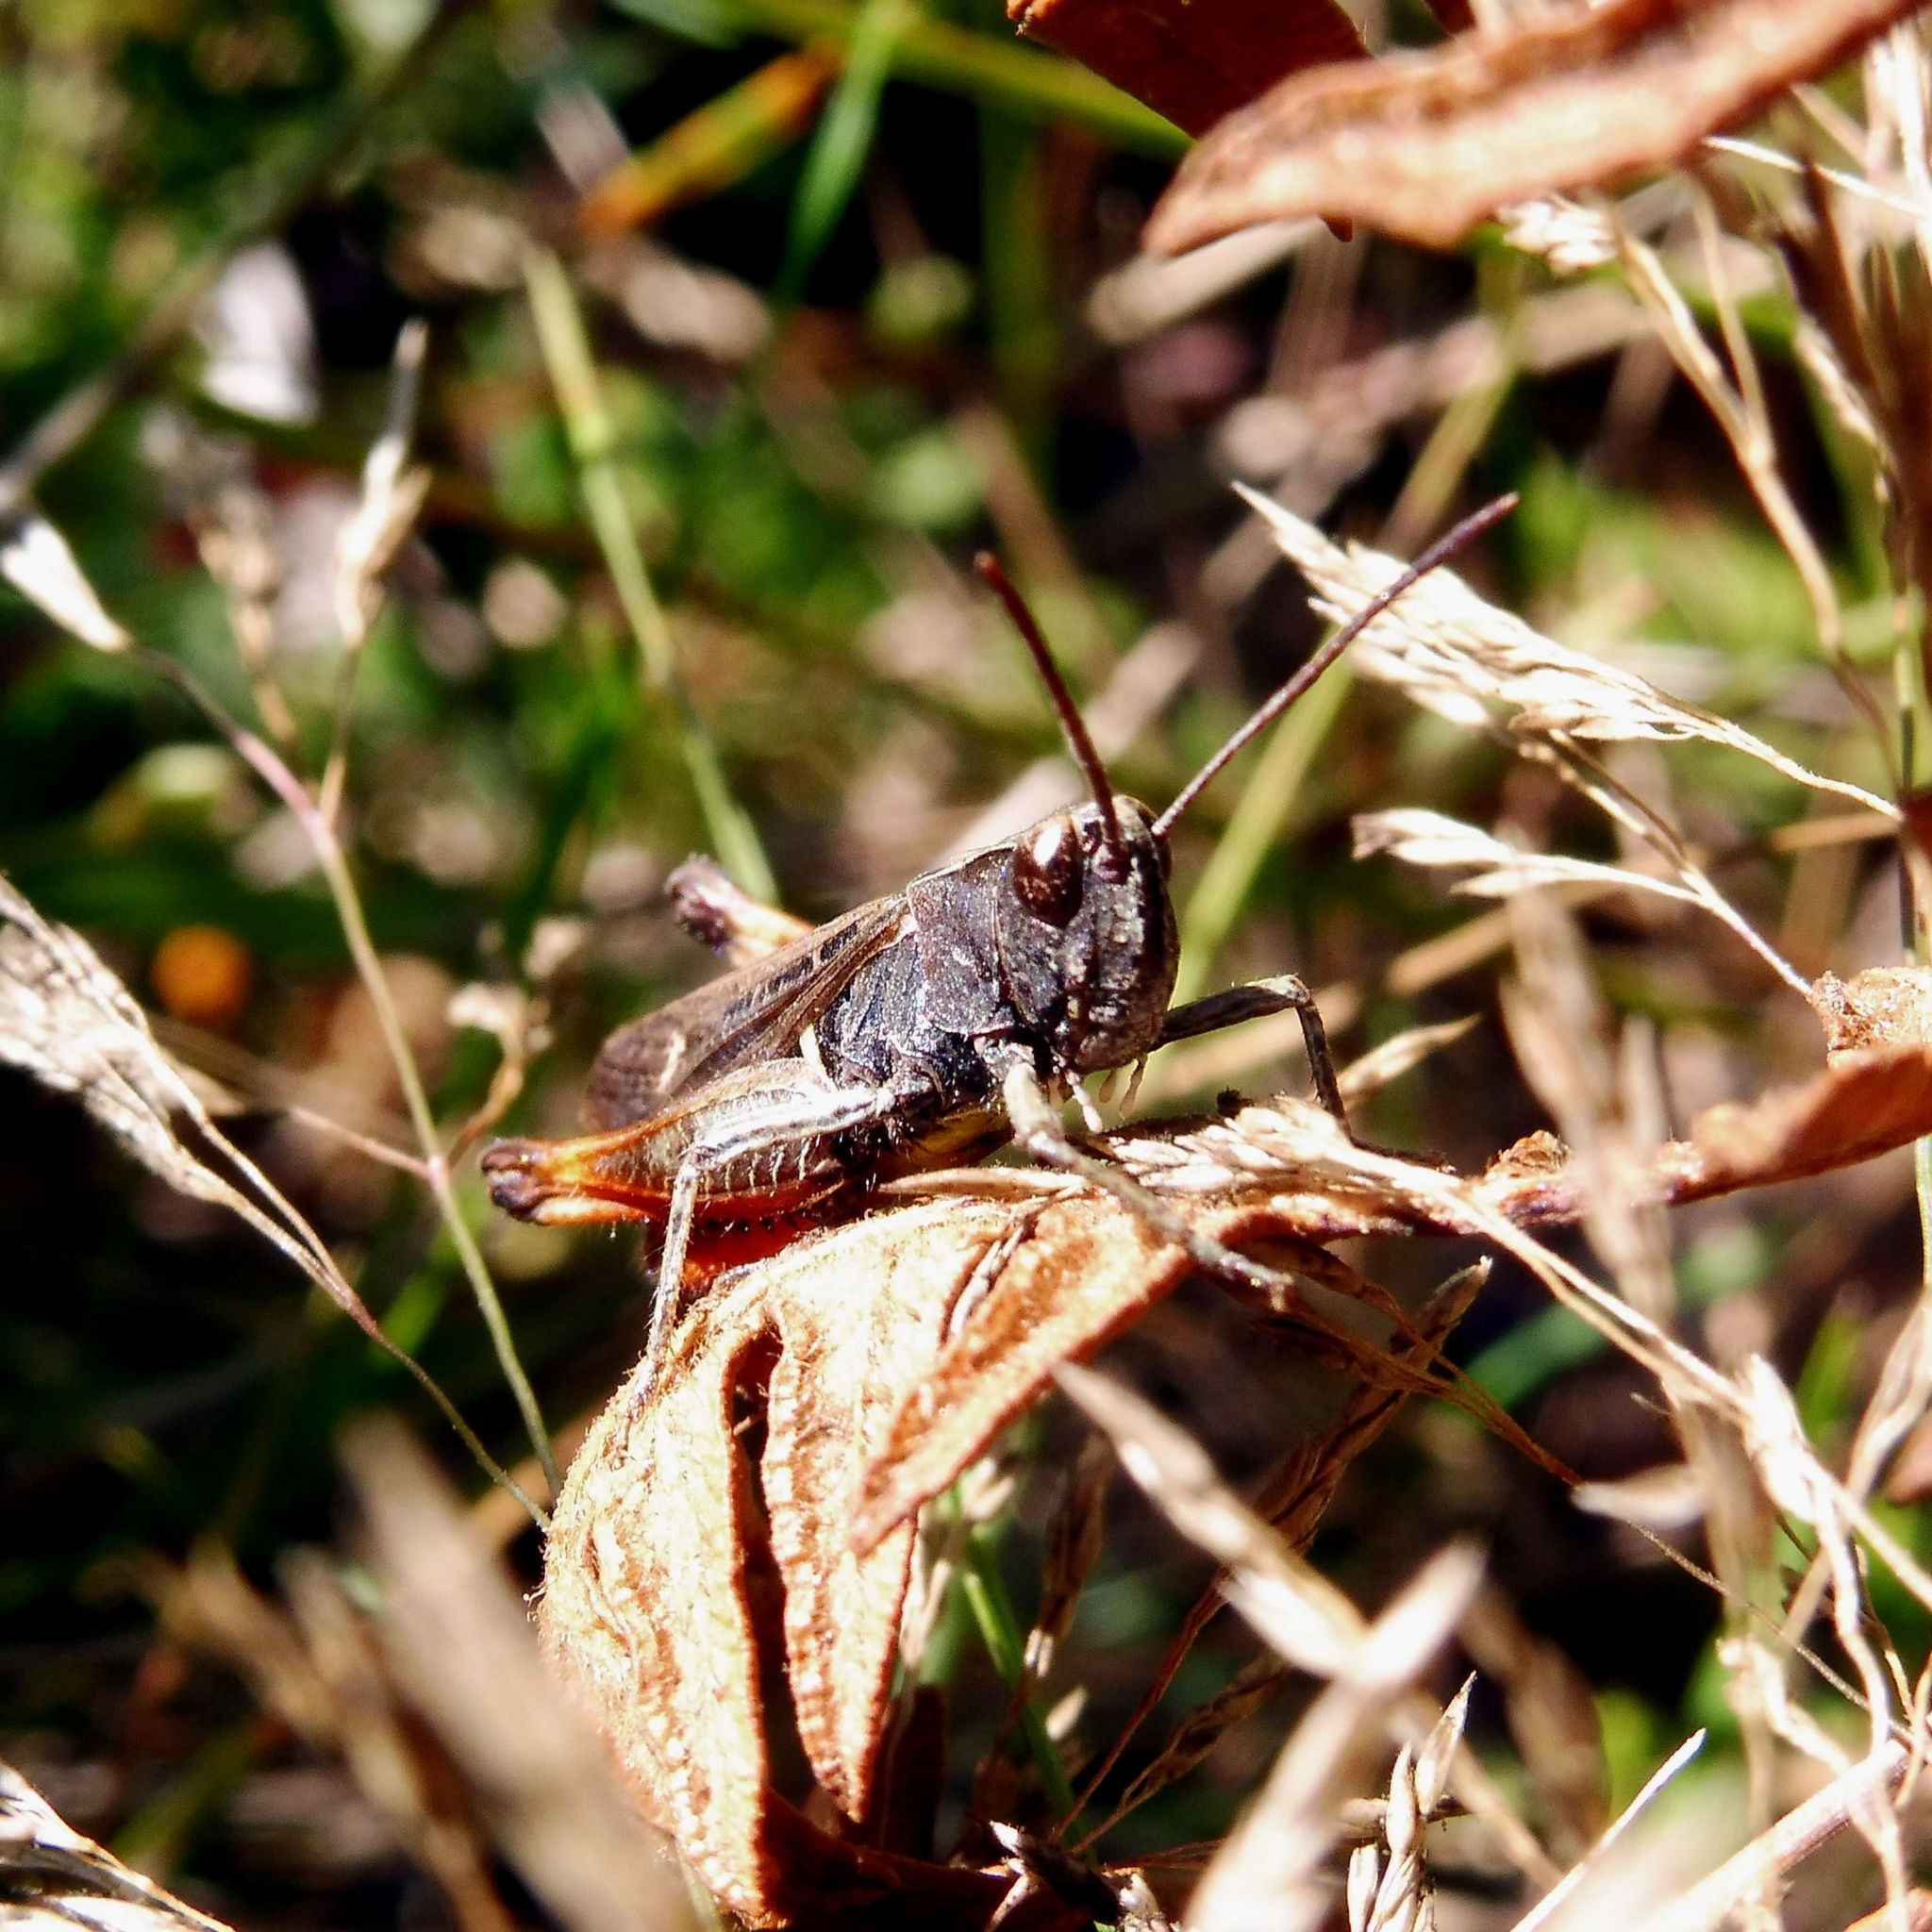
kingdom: Animalia
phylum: Arthropoda
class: Insecta
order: Orthoptera
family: Acrididae
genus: Omocestus
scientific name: Omocestus rufipes
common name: Woodland grasshopper
